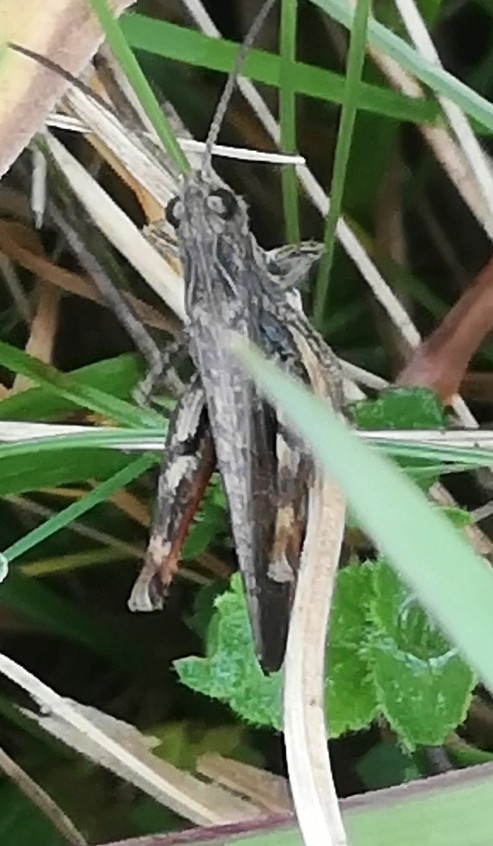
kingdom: Animalia
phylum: Arthropoda
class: Insecta
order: Orthoptera
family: Acrididae
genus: Chorthippus
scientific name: Chorthippus biguttulus
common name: Bow-winged grasshopper
